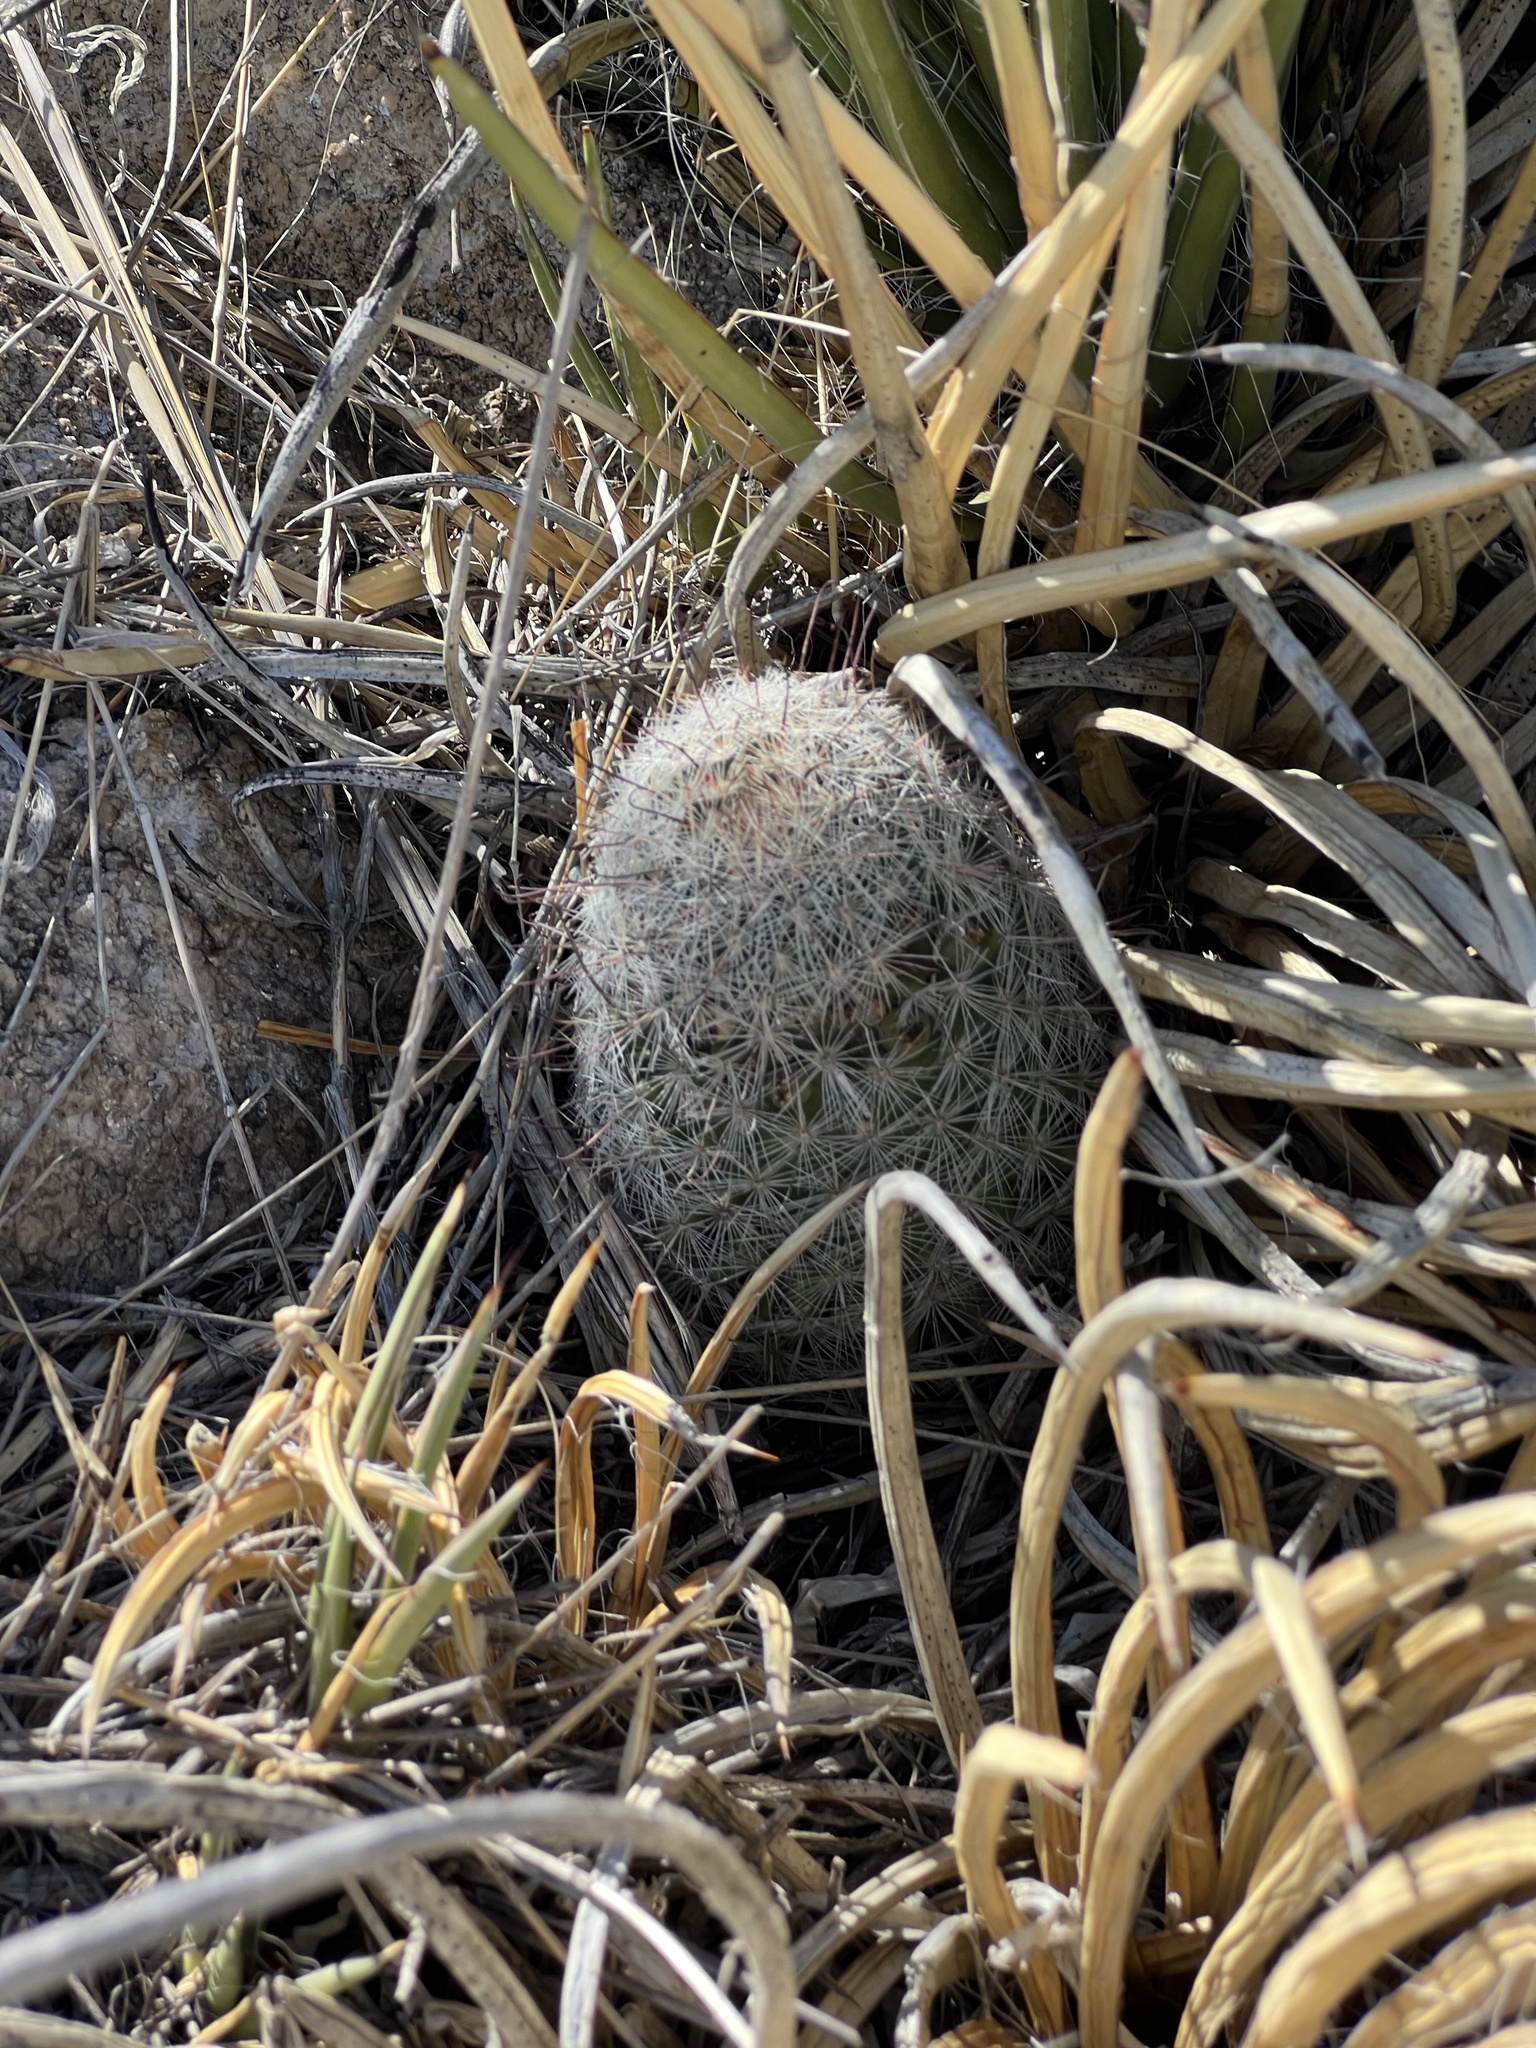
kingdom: Plantae
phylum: Tracheophyta
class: Magnoliopsida
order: Caryophyllales
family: Cactaceae
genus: Cochemiea
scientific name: Cochemiea grahamii
